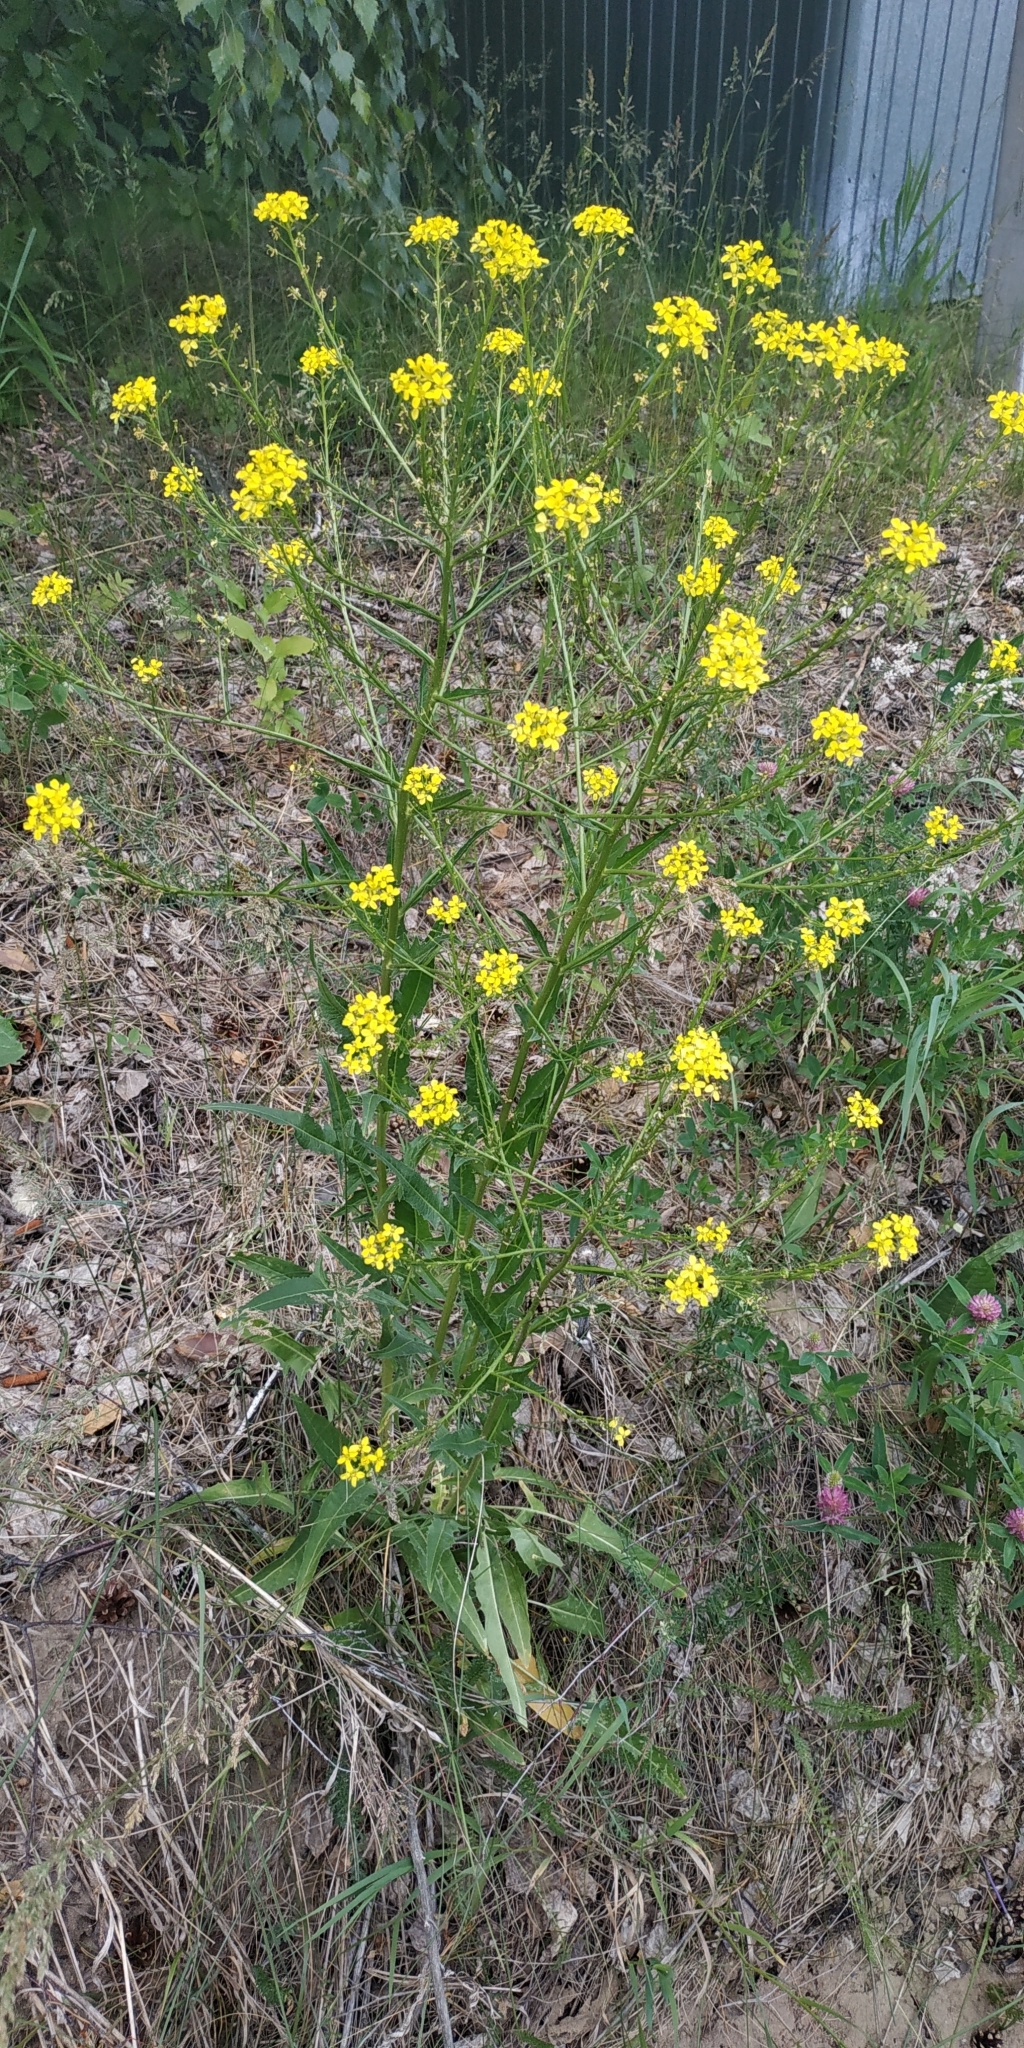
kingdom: Plantae
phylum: Tracheophyta
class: Magnoliopsida
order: Brassicales
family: Brassicaceae
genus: Bunias
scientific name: Bunias orientalis
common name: Warty-cabbage
